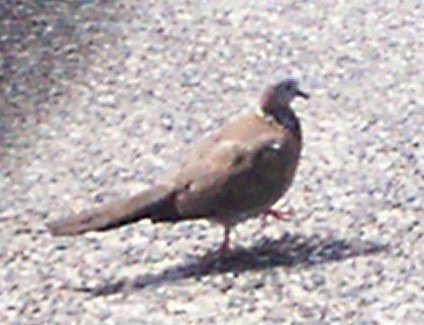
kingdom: Animalia
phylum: Chordata
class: Aves
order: Columbiformes
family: Columbidae
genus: Spilopelia
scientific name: Spilopelia chinensis
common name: Spotted dove
